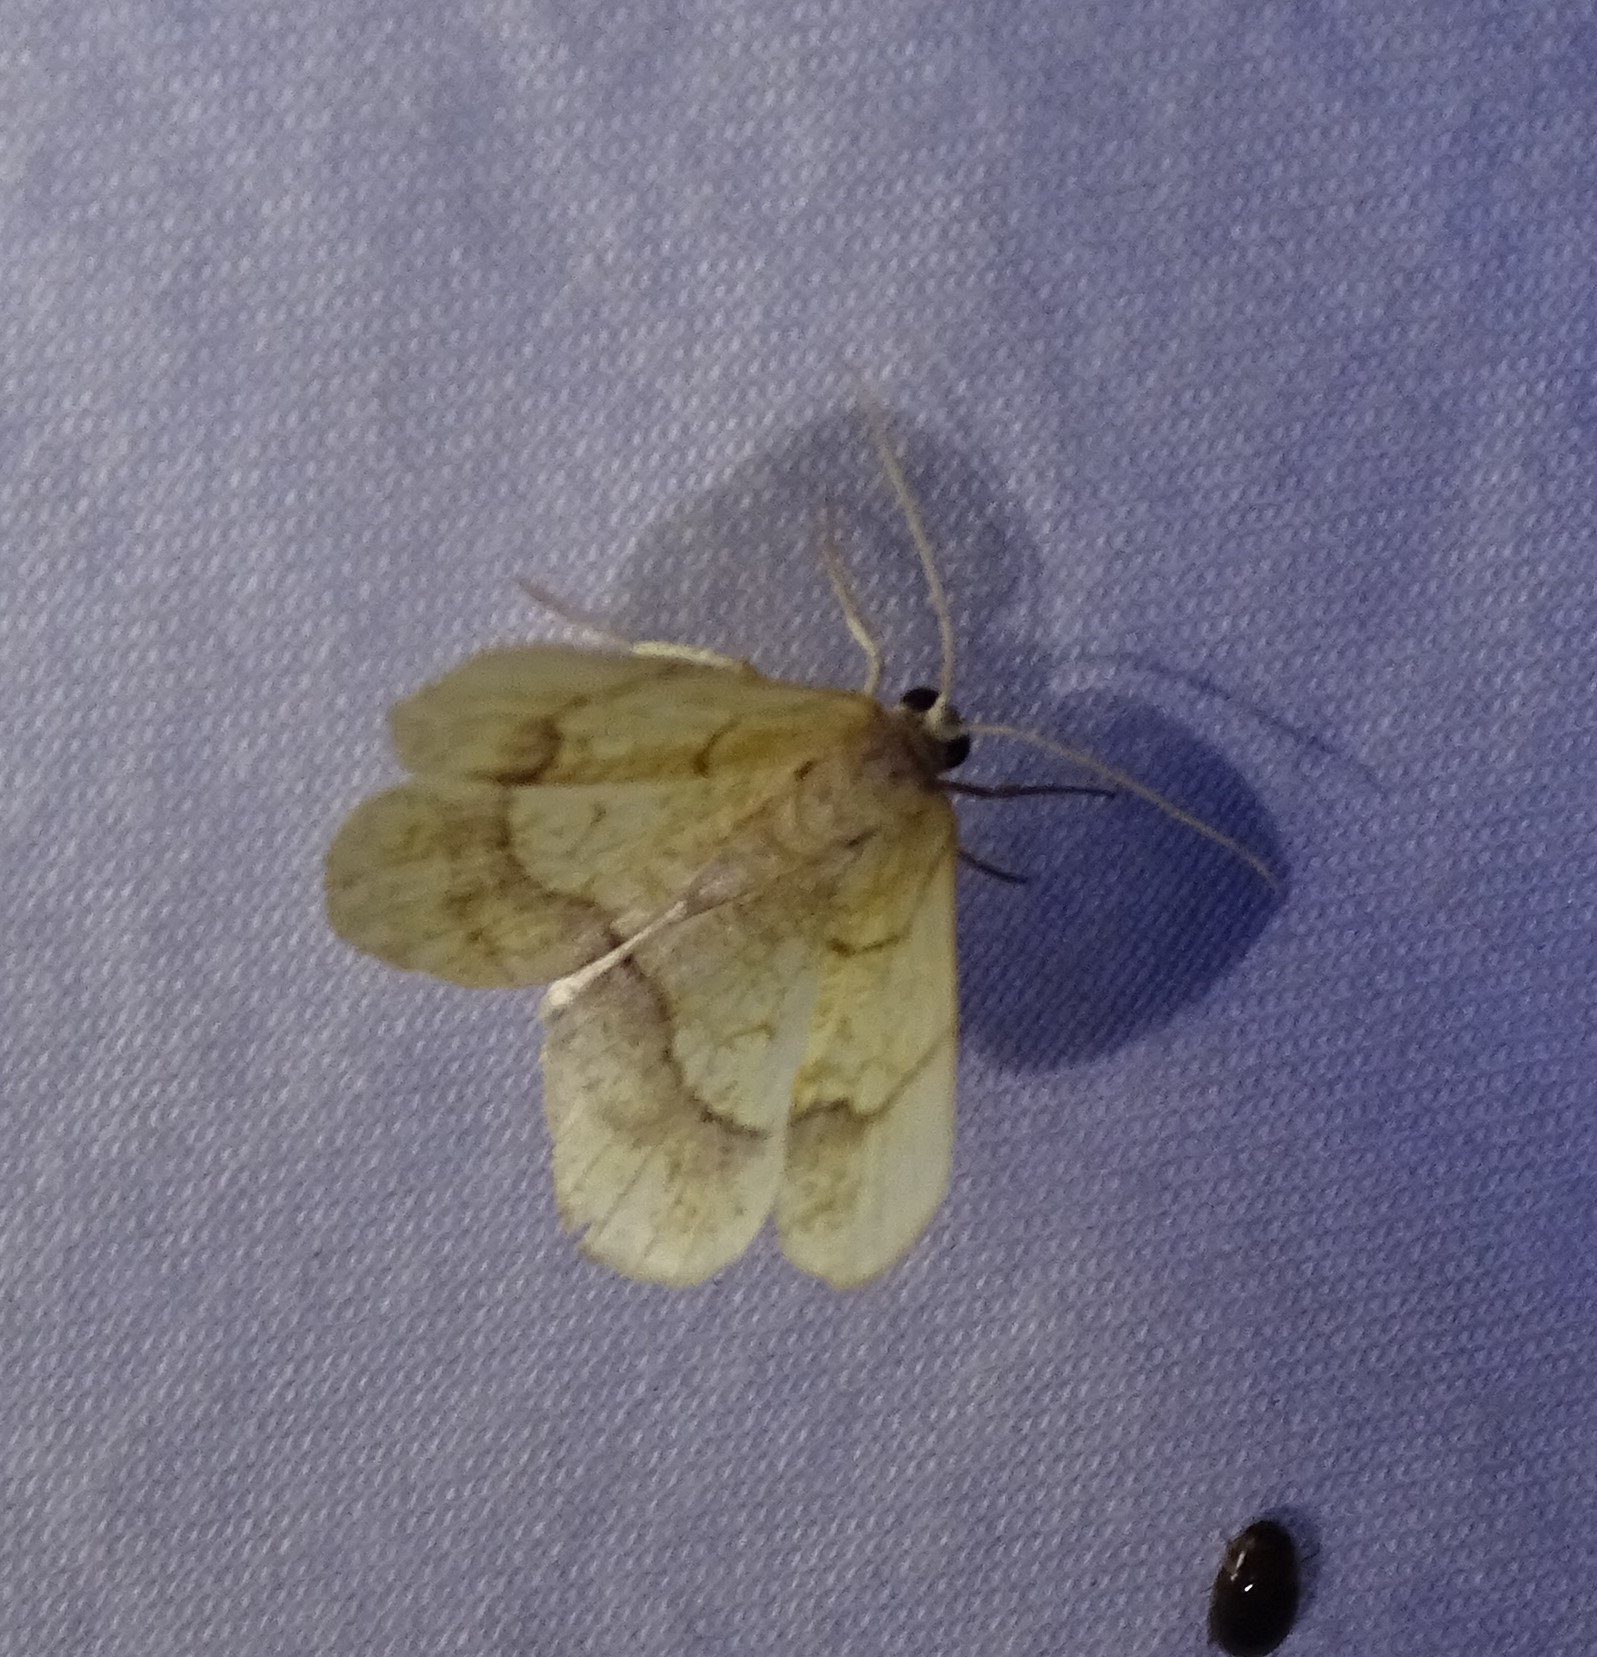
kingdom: Animalia
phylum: Arthropoda
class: Insecta
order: Lepidoptera
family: Geometridae
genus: Nematocampa
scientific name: Nematocampa resistaria
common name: Horned spanworm moth
